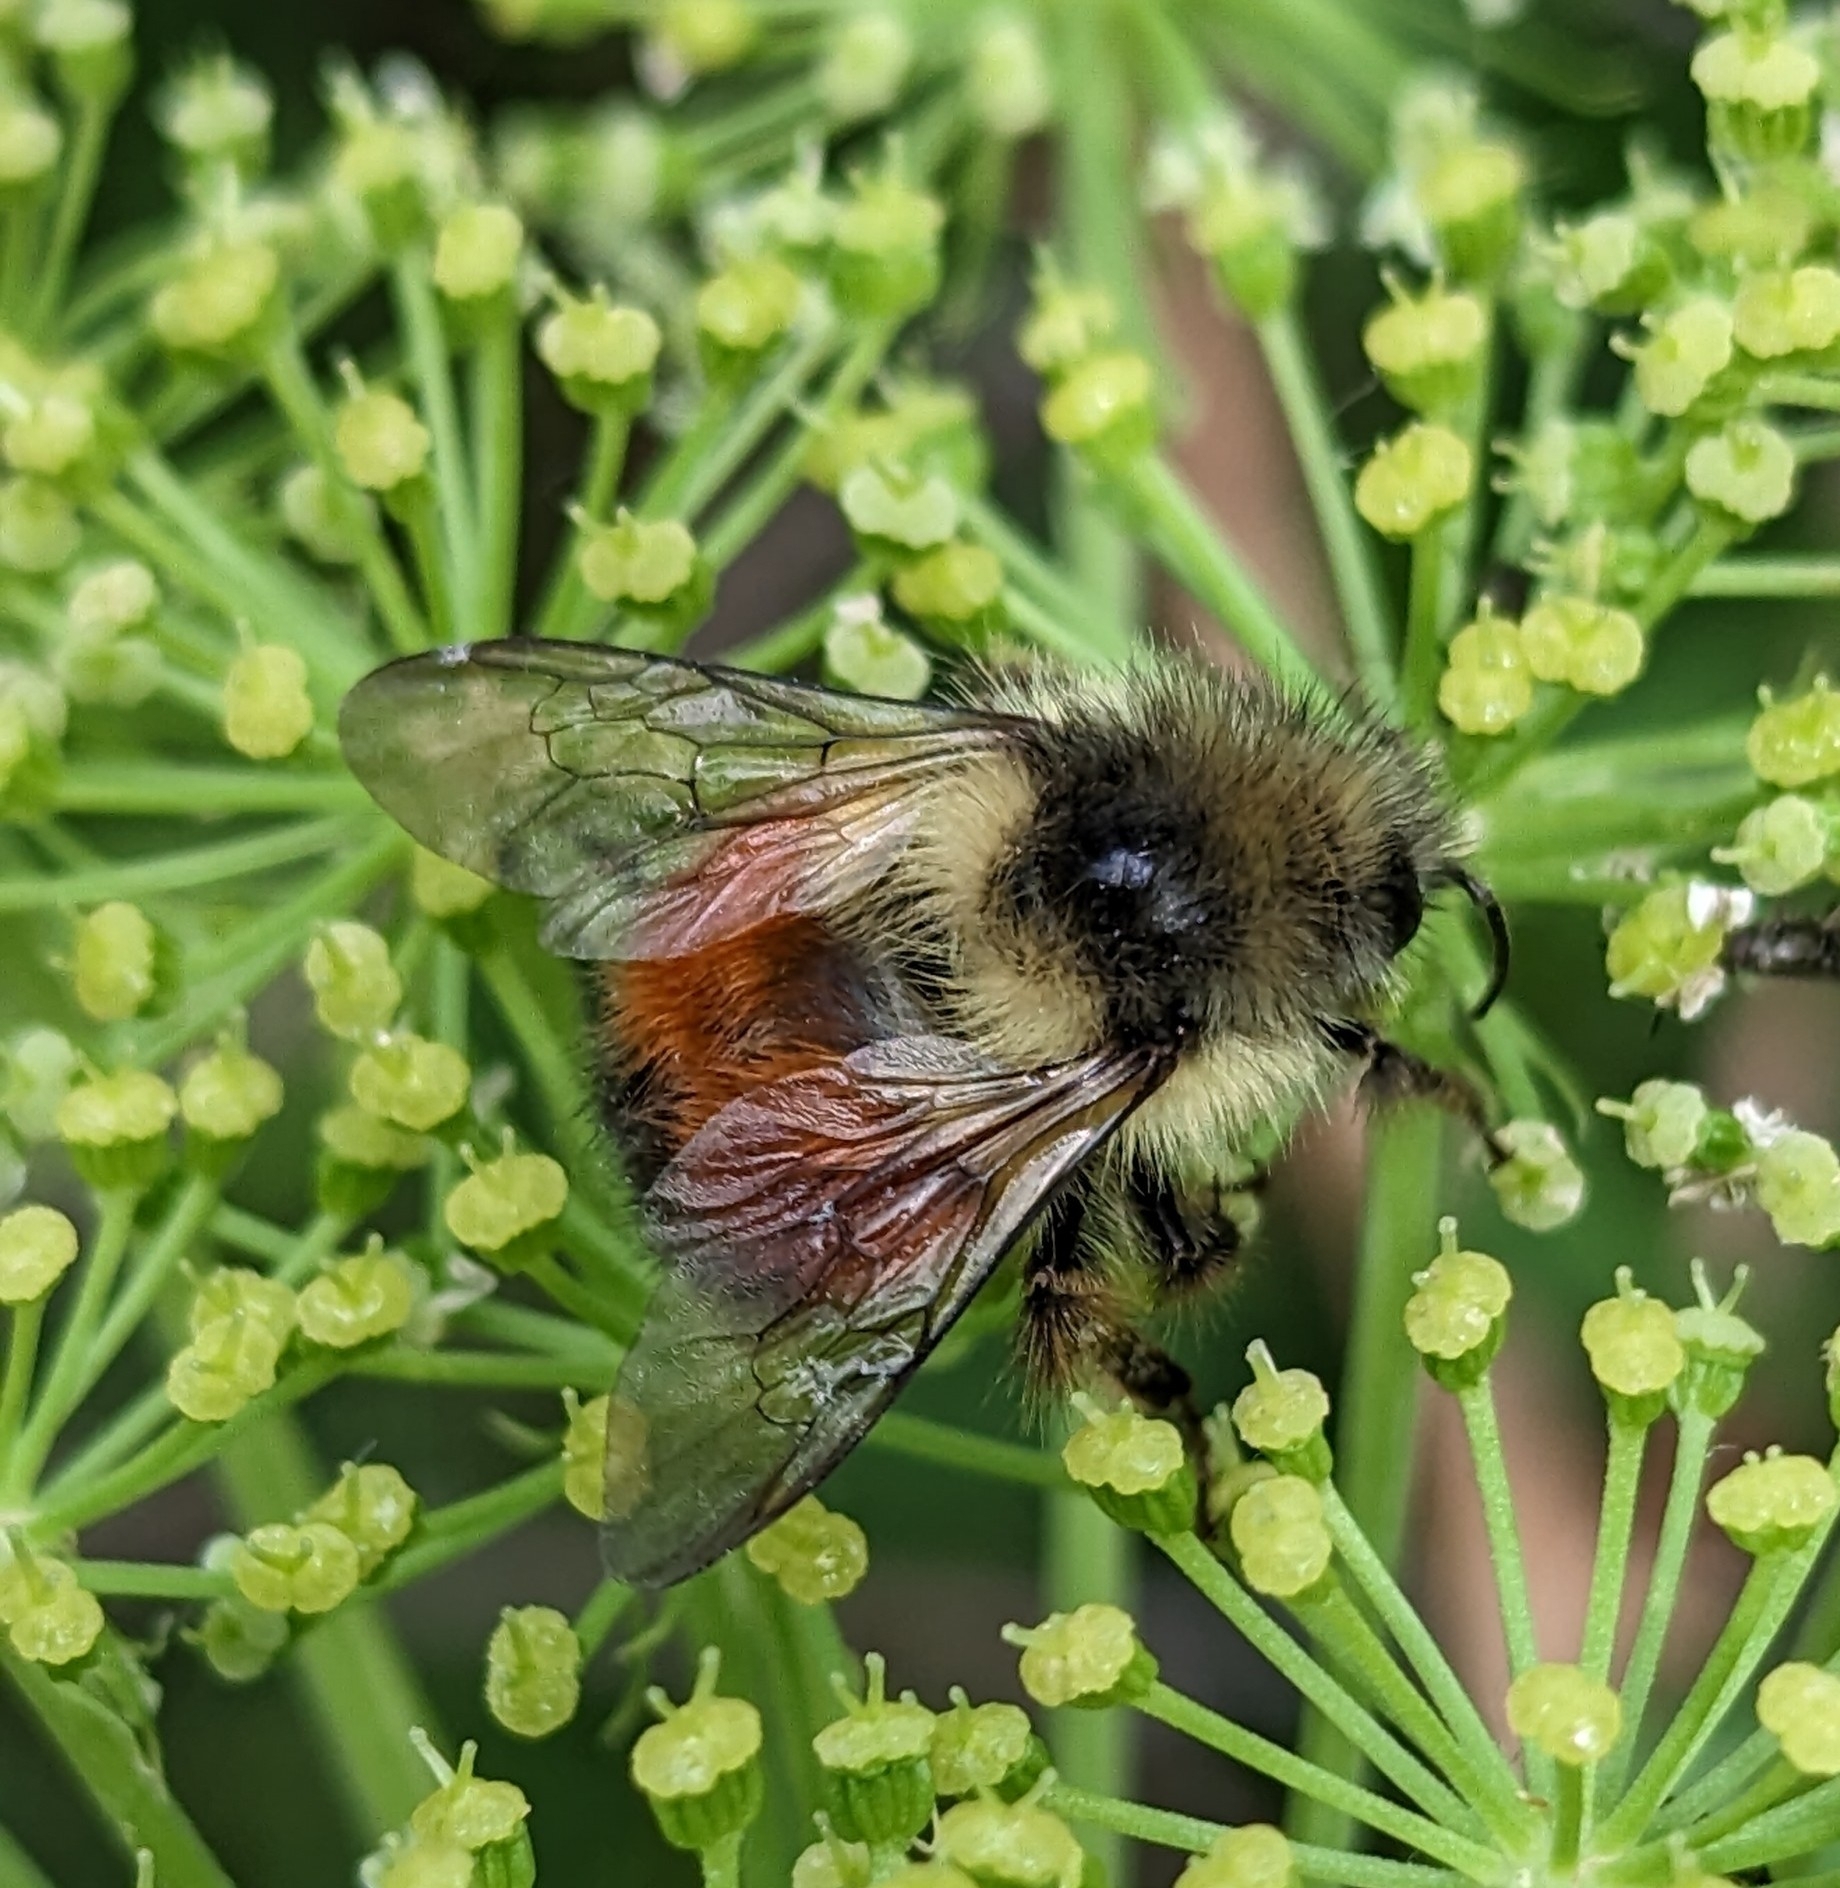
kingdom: Animalia
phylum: Arthropoda
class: Insecta
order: Hymenoptera
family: Apidae
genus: Bombus
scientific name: Bombus melanopygus
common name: Black tail bumble bee
